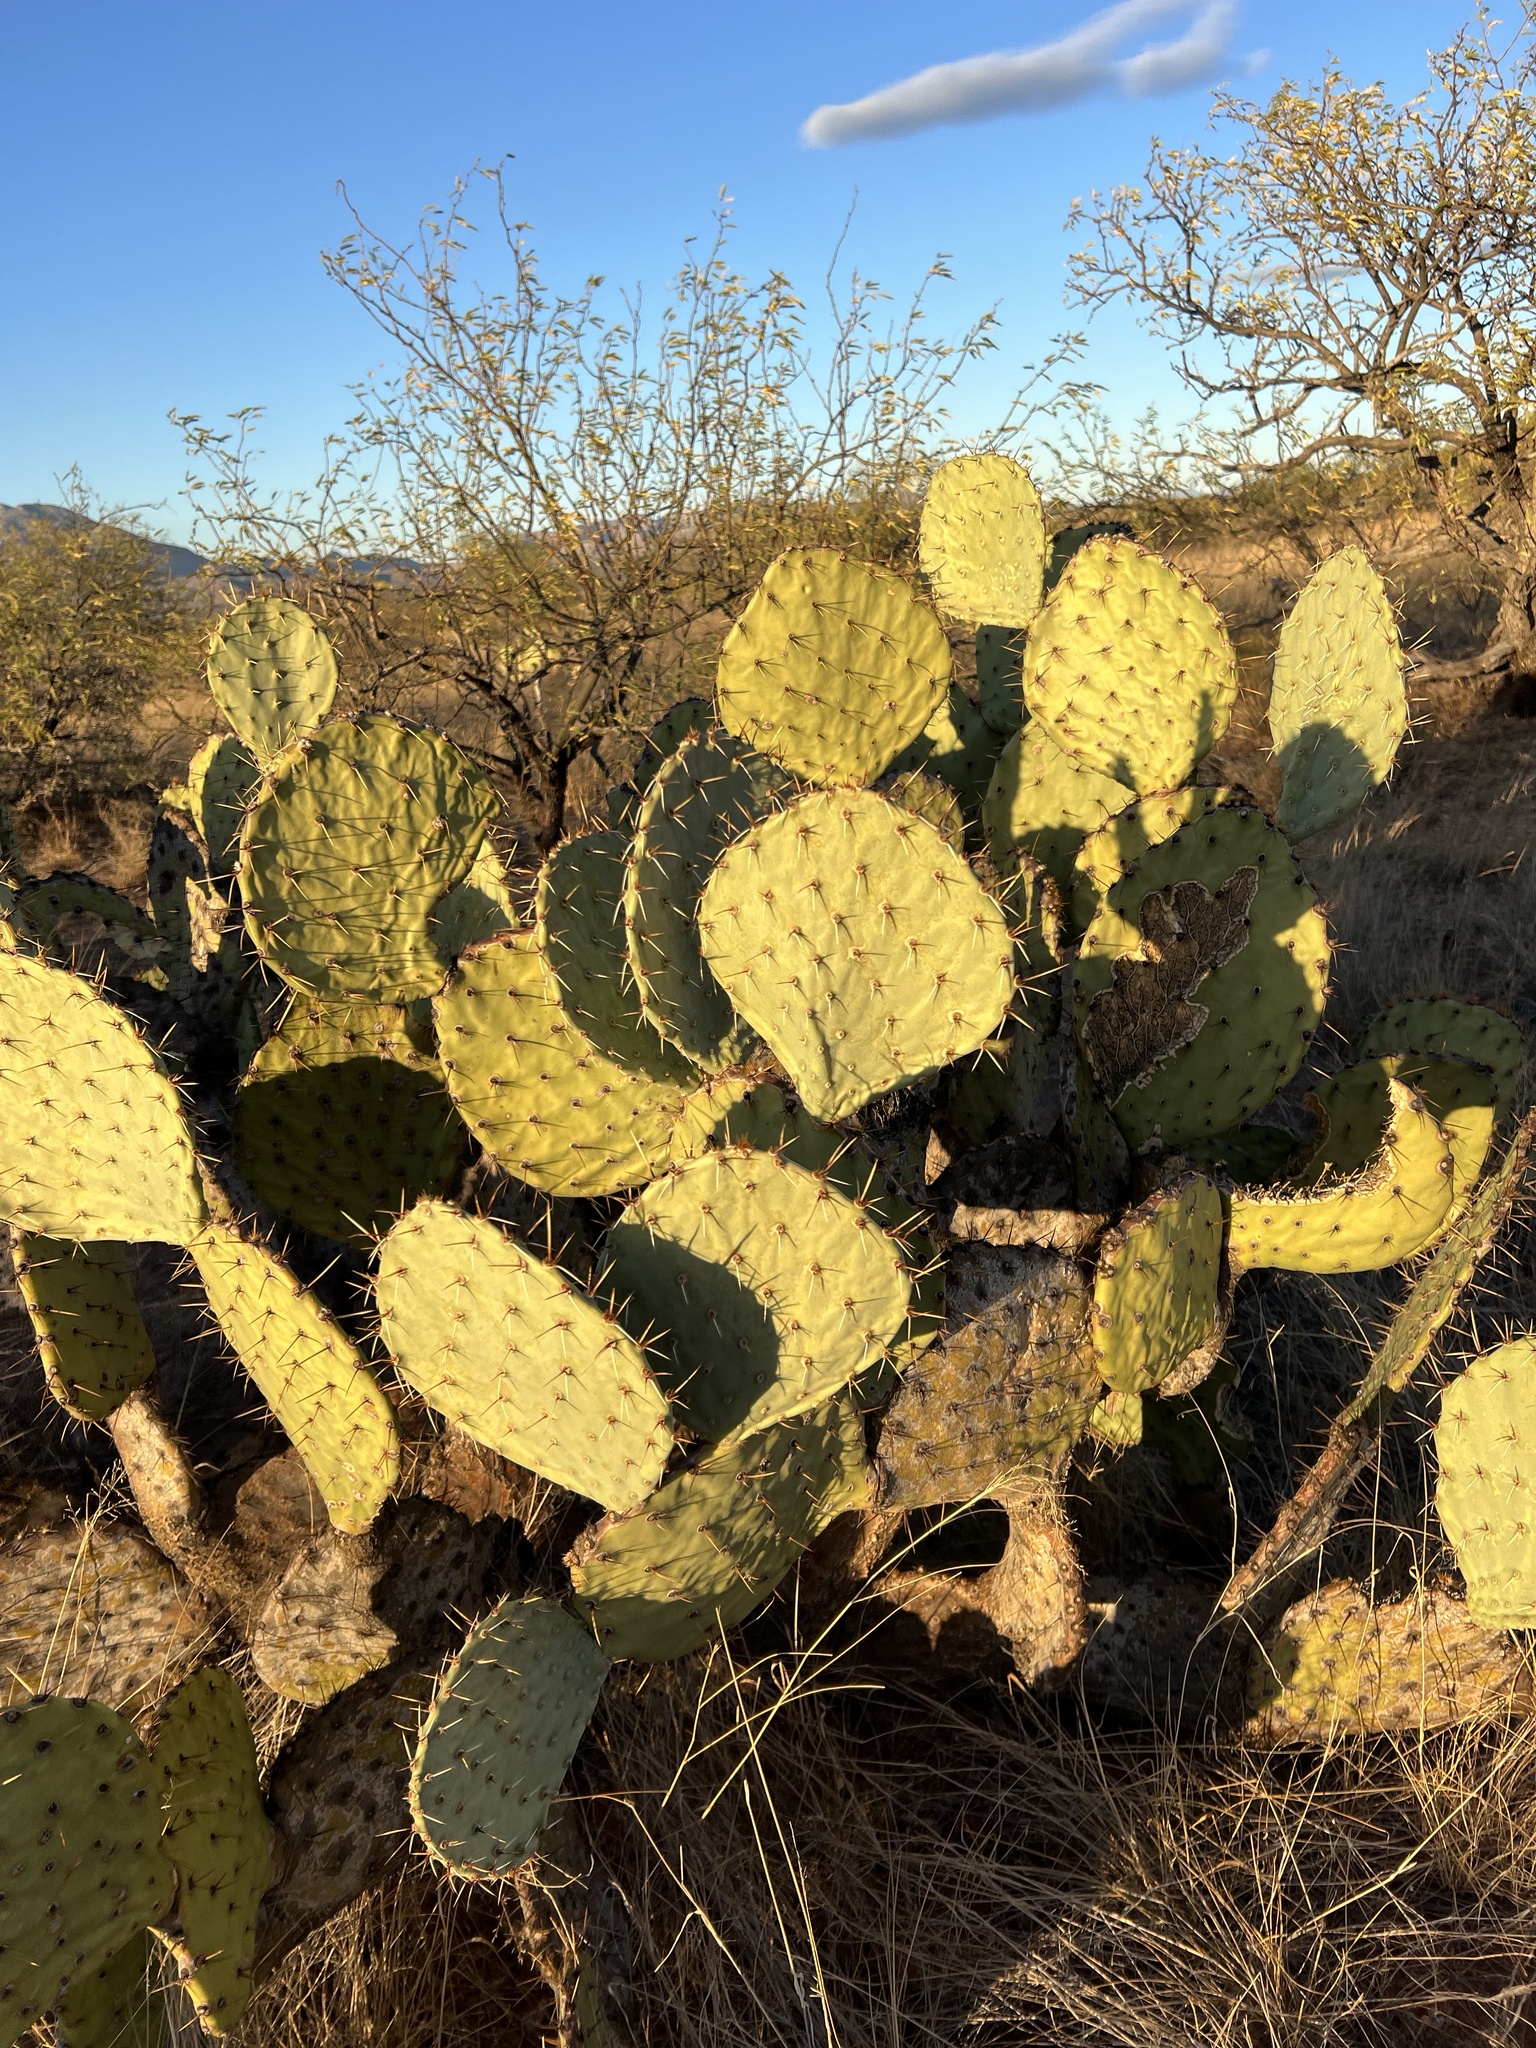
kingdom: Plantae
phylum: Tracheophyta
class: Magnoliopsida
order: Caryophyllales
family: Cactaceae
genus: Opuntia
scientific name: Opuntia engelmannii
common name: Cactus-apple
